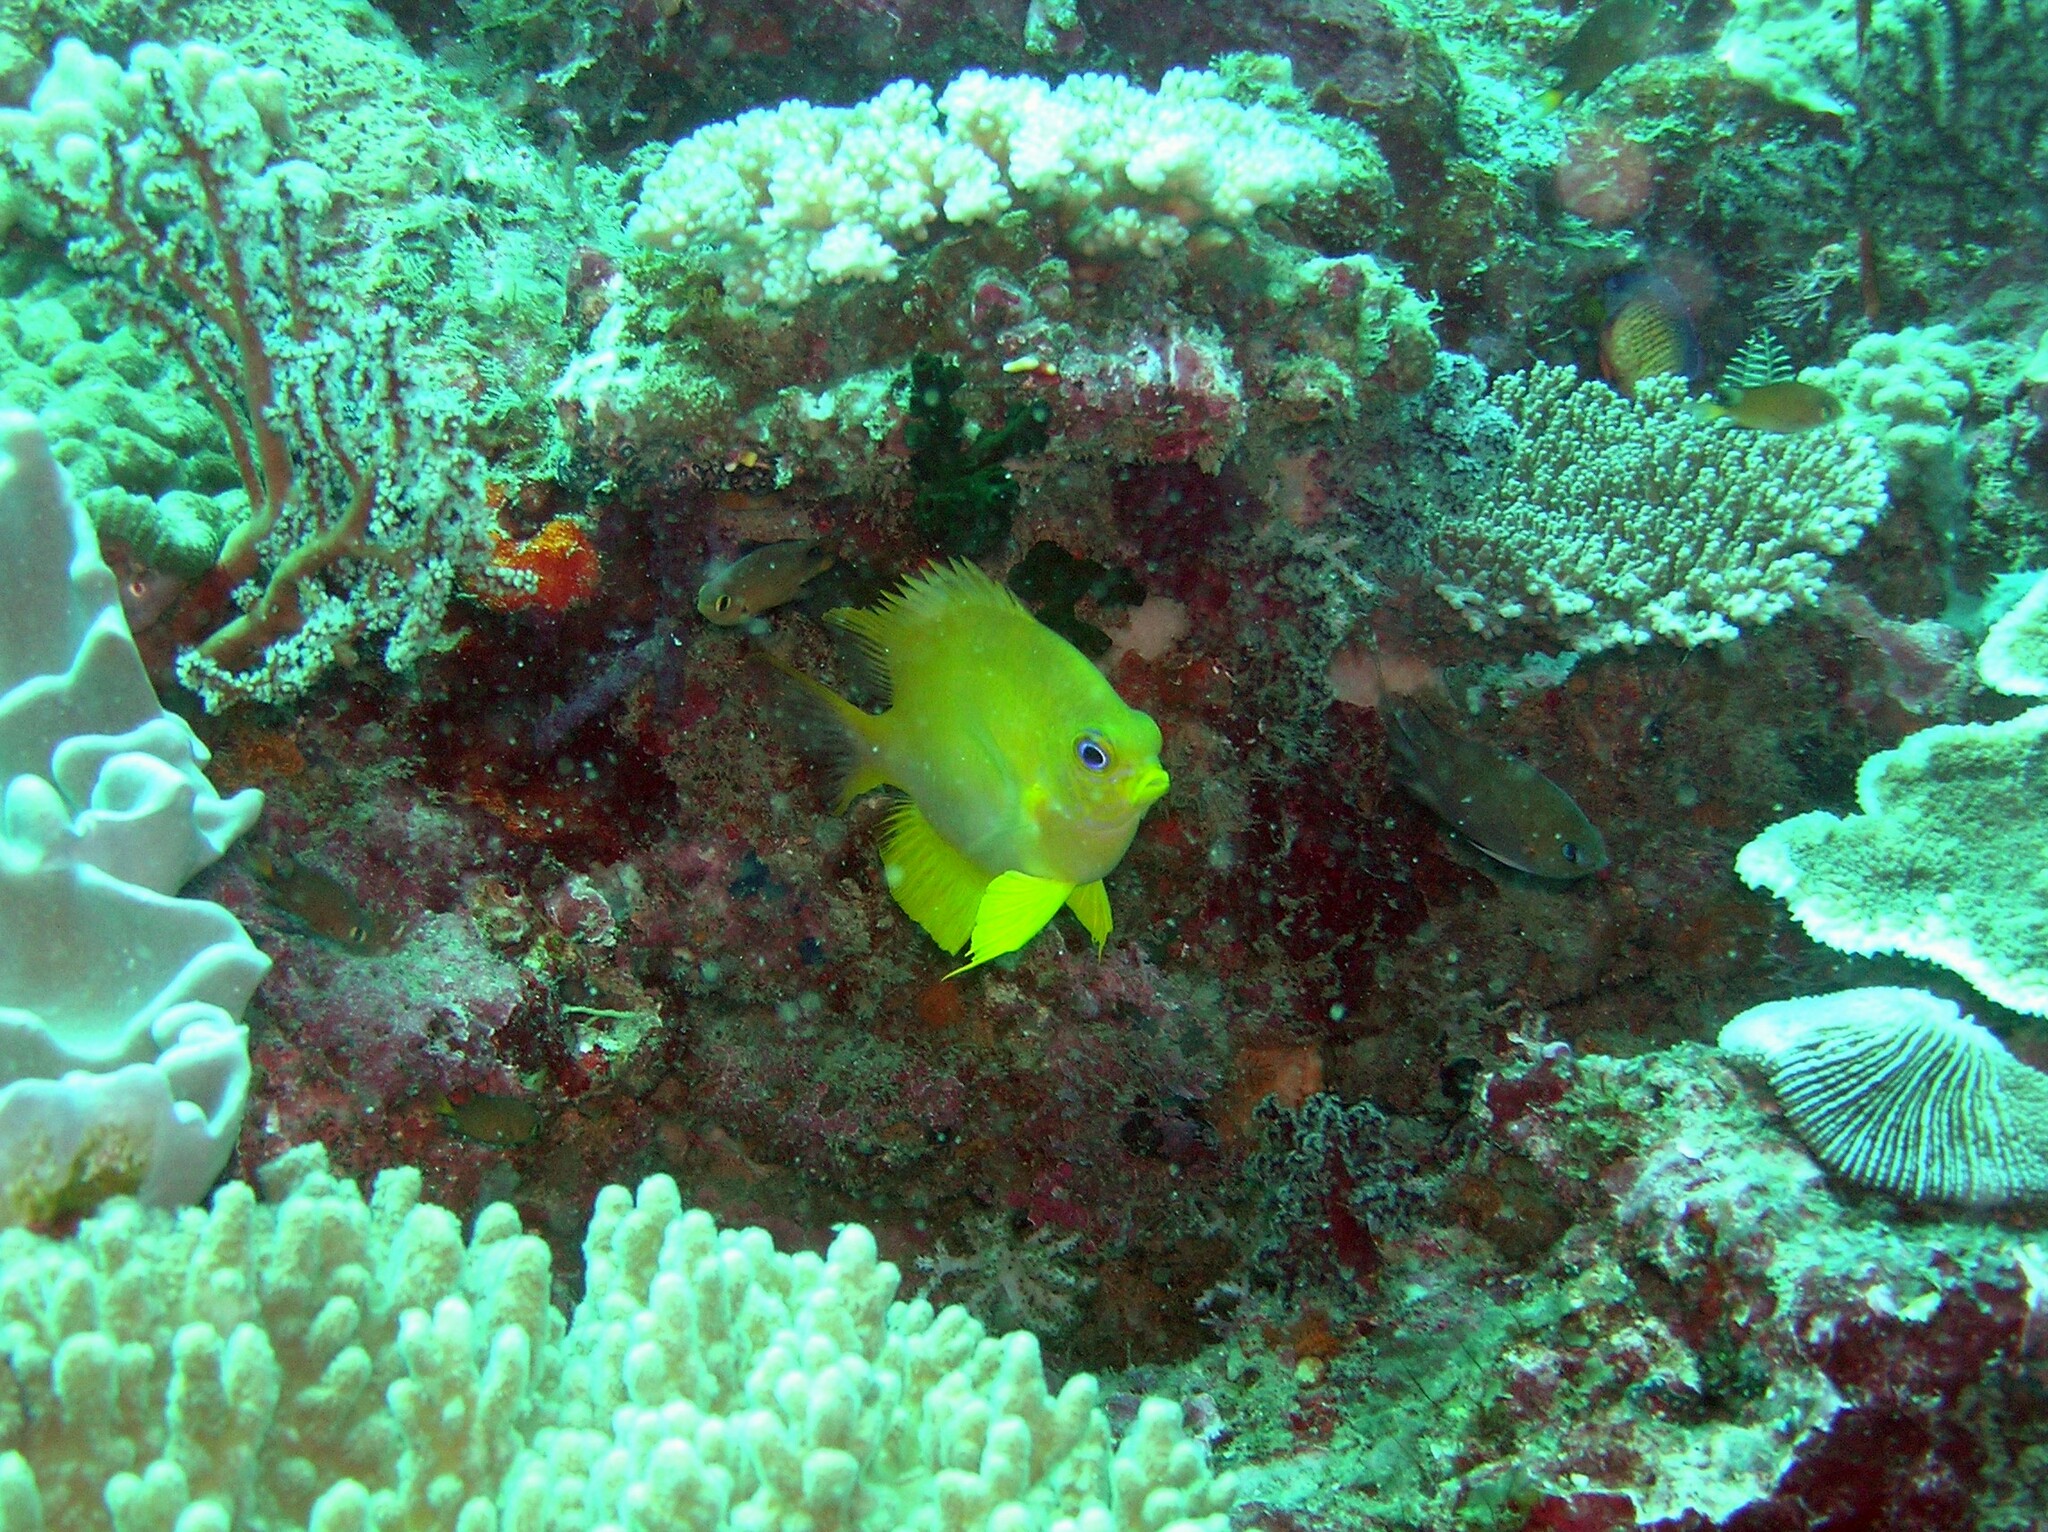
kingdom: Animalia
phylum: Chordata
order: Perciformes
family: Pomacentridae
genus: Amblyglyphidodon
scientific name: Amblyglyphidodon aureus
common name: Golden damsel
